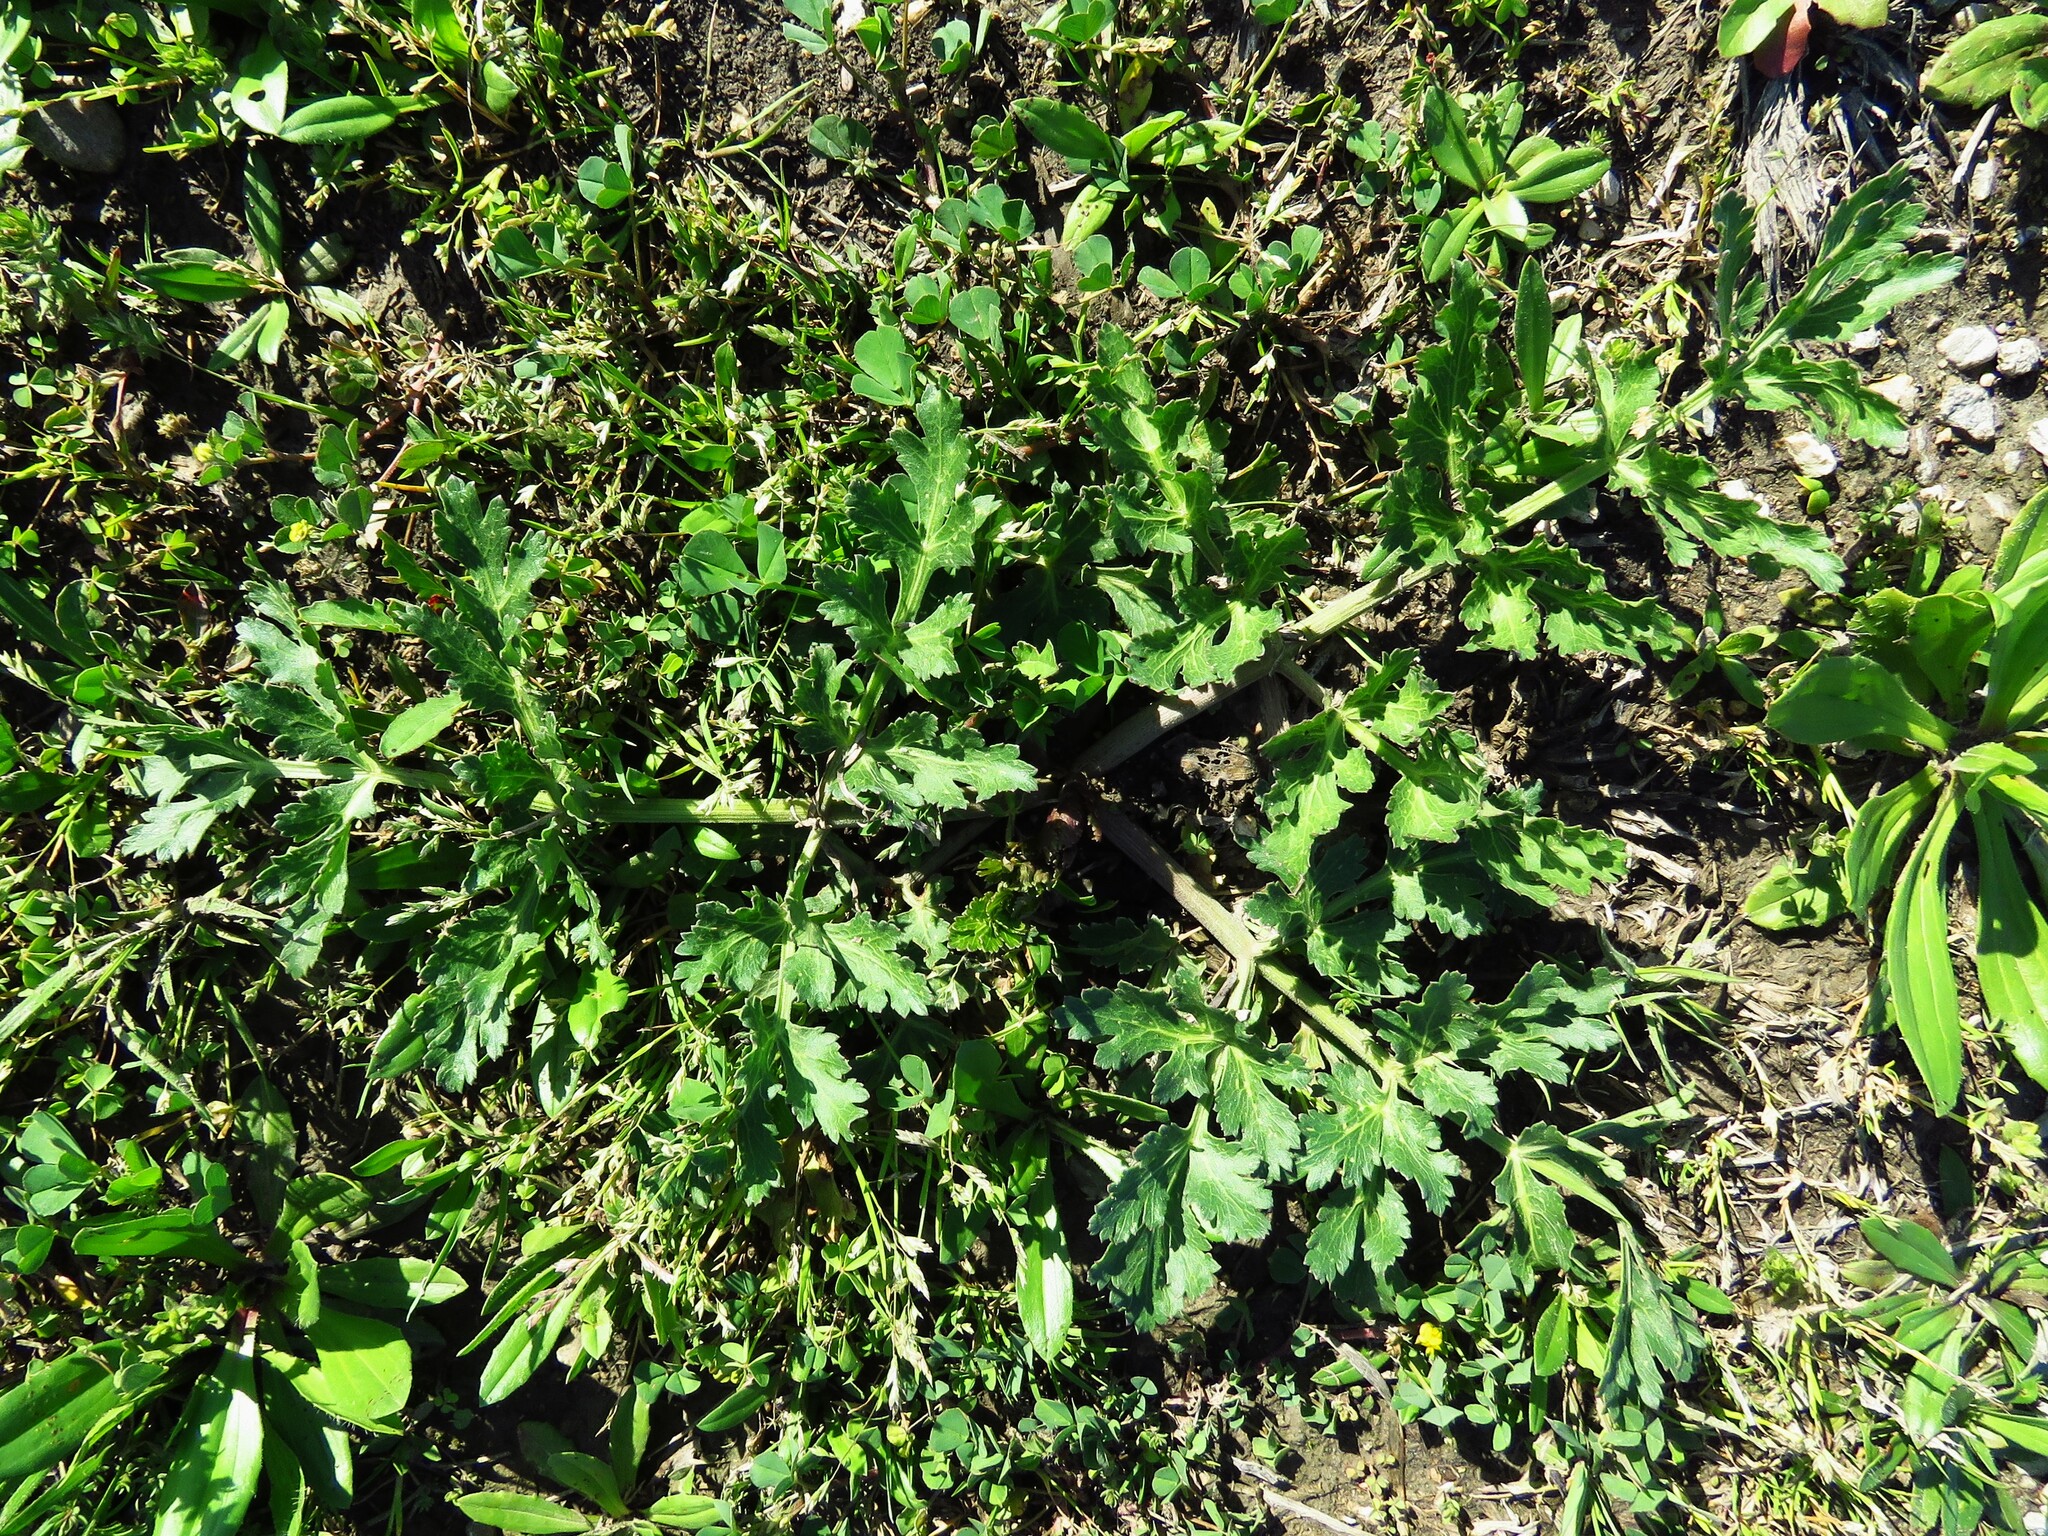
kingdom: Plantae
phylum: Tracheophyta
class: Magnoliopsida
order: Apiales
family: Apiaceae
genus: Polytaenia
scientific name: Polytaenia texana
